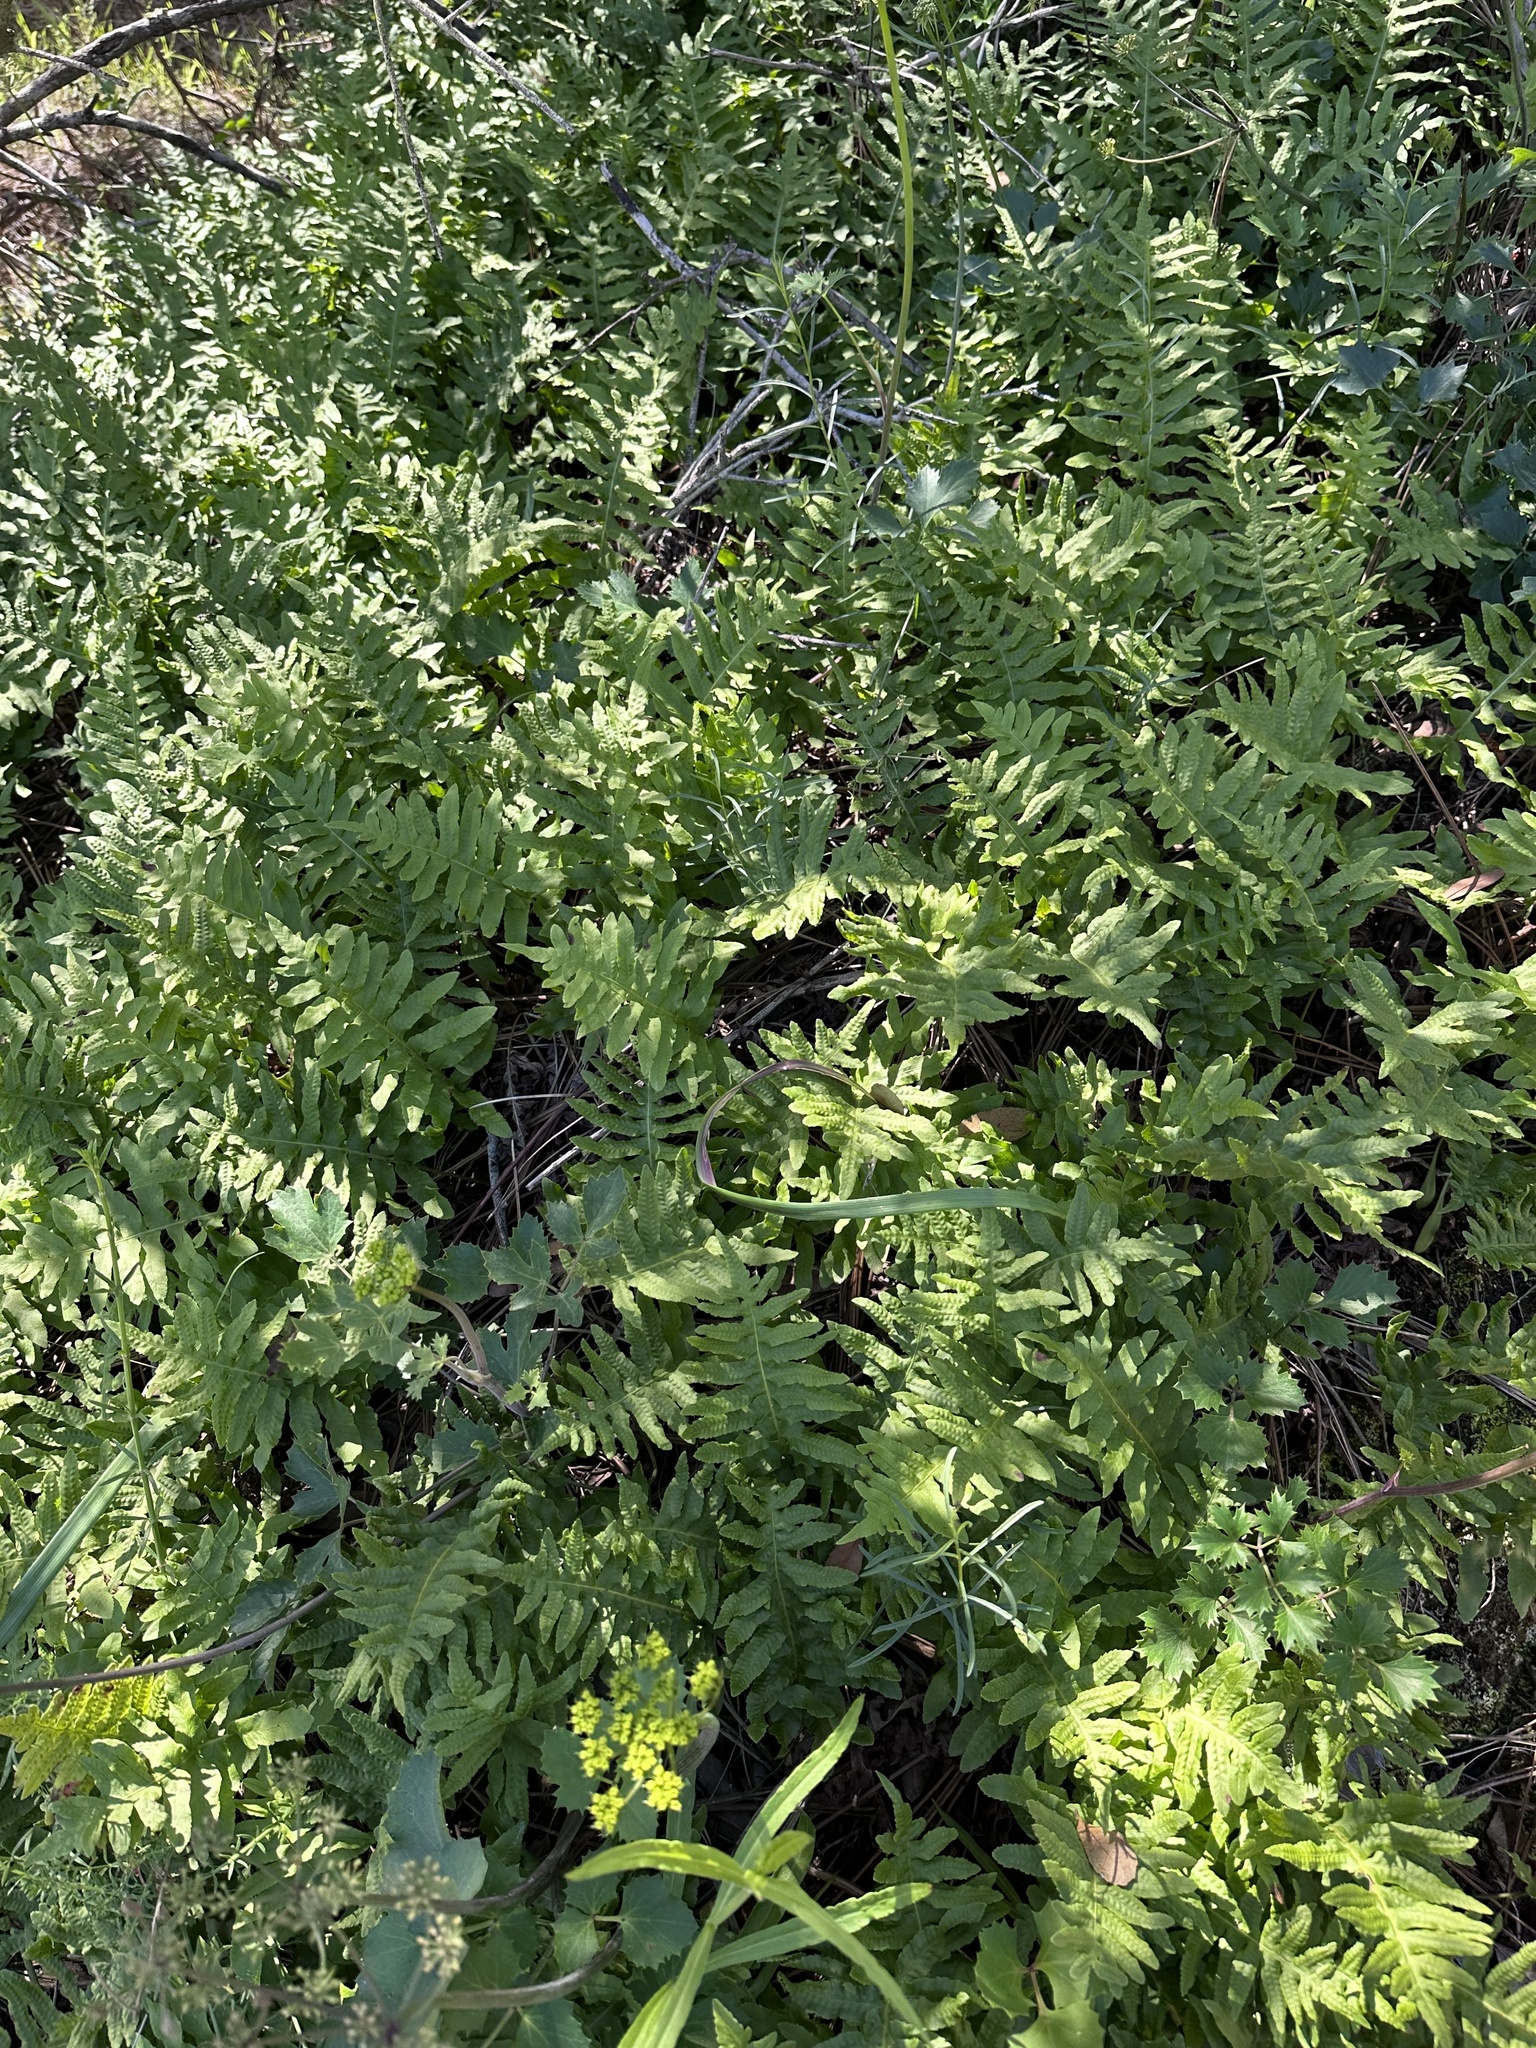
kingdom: Plantae
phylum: Tracheophyta
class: Polypodiopsida
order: Polypodiales
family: Polypodiaceae
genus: Polypodium
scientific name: Polypodium californicum
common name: California polypody
